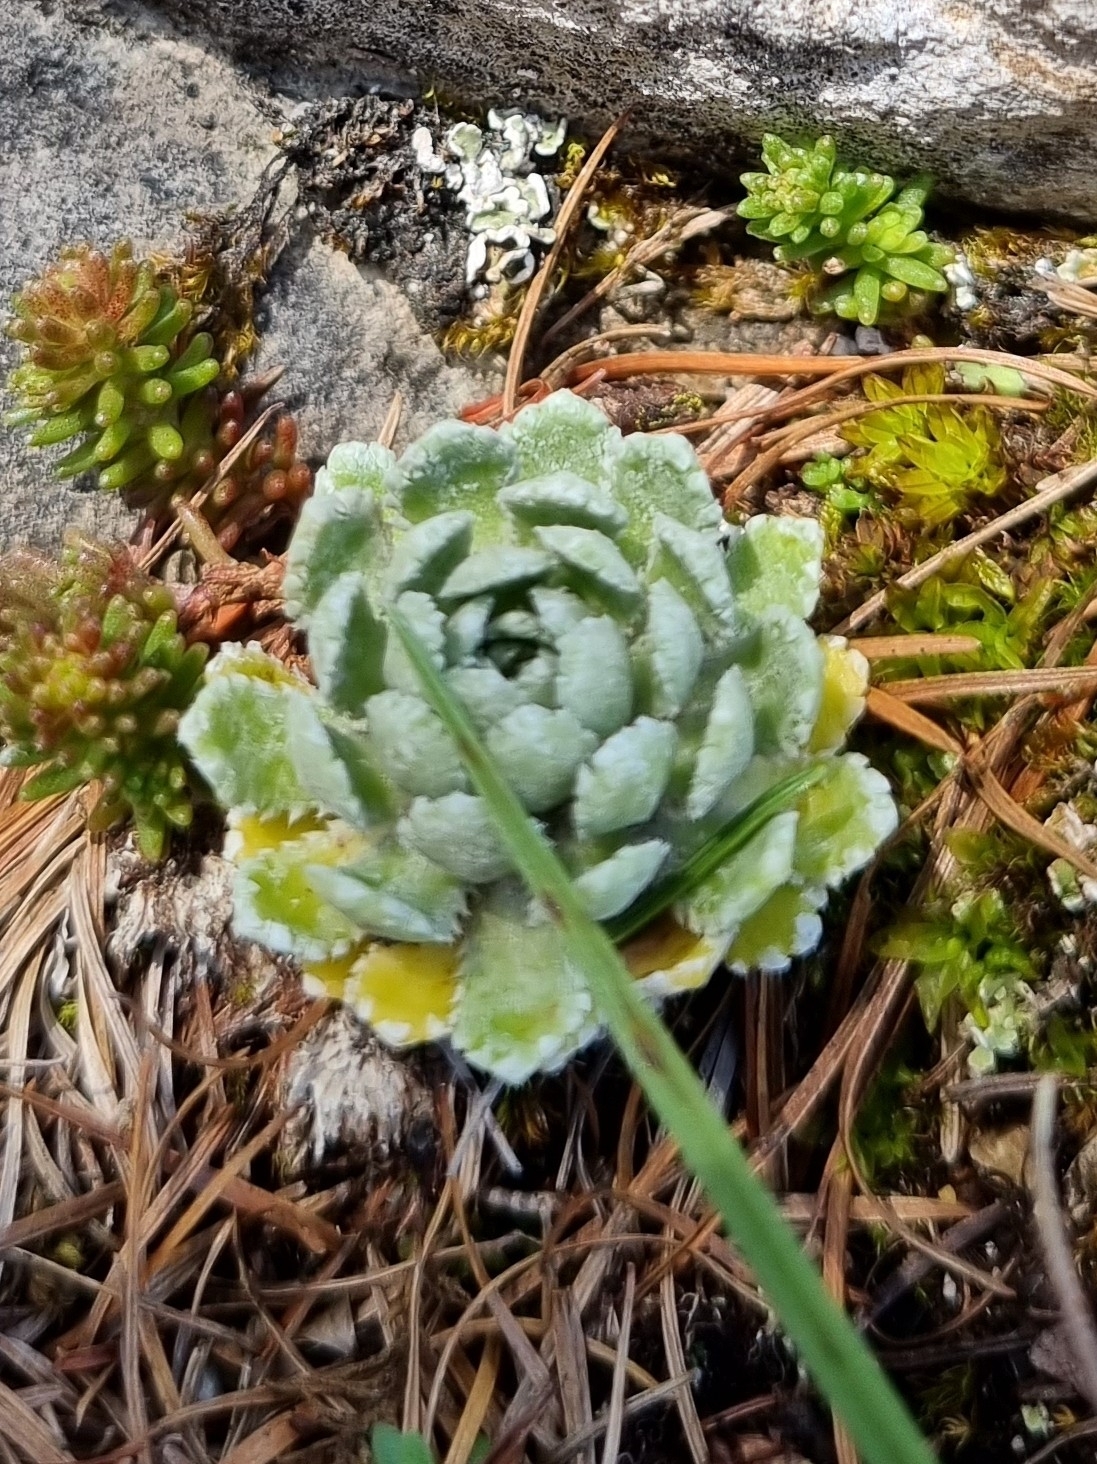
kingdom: Plantae
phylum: Tracheophyta
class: Magnoliopsida
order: Saxifragales
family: Saxifragaceae
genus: Saxifraga
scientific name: Saxifraga paniculata
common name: Livelong saxifrage
